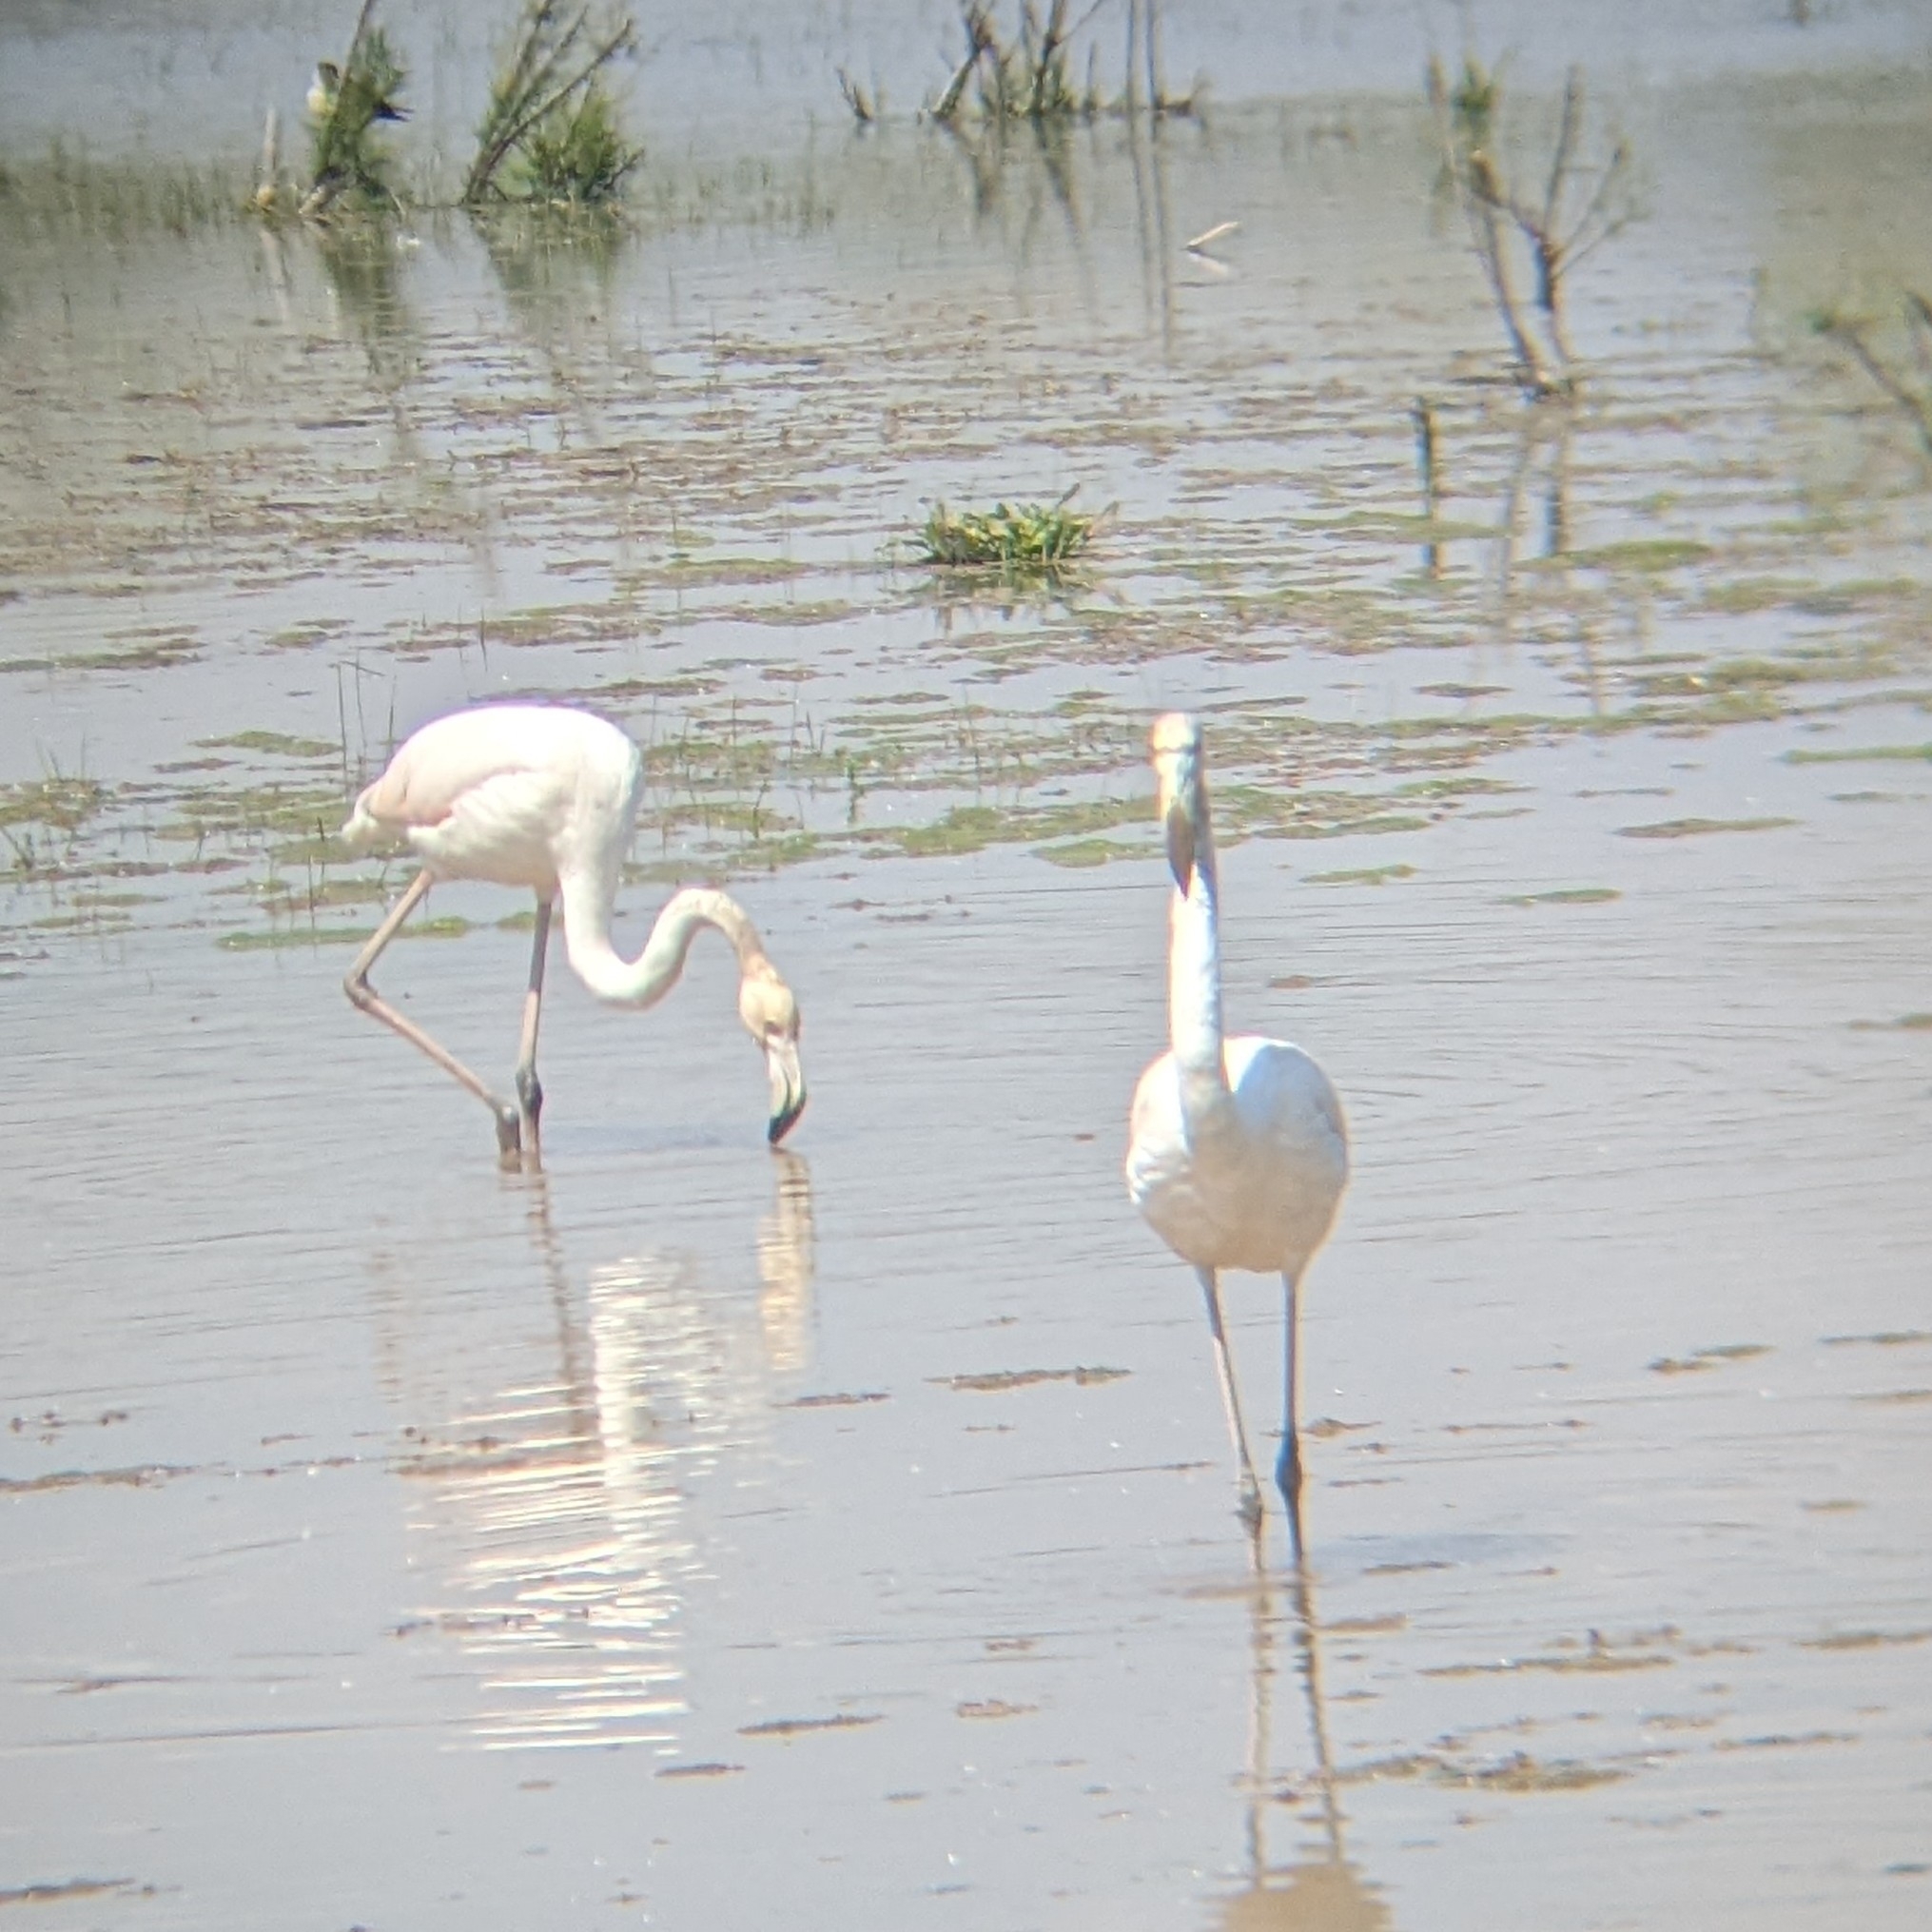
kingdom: Animalia
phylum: Chordata
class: Aves
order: Phoenicopteriformes
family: Phoenicopteridae
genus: Phoenicopterus
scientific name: Phoenicopterus roseus
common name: Greater flamingo
